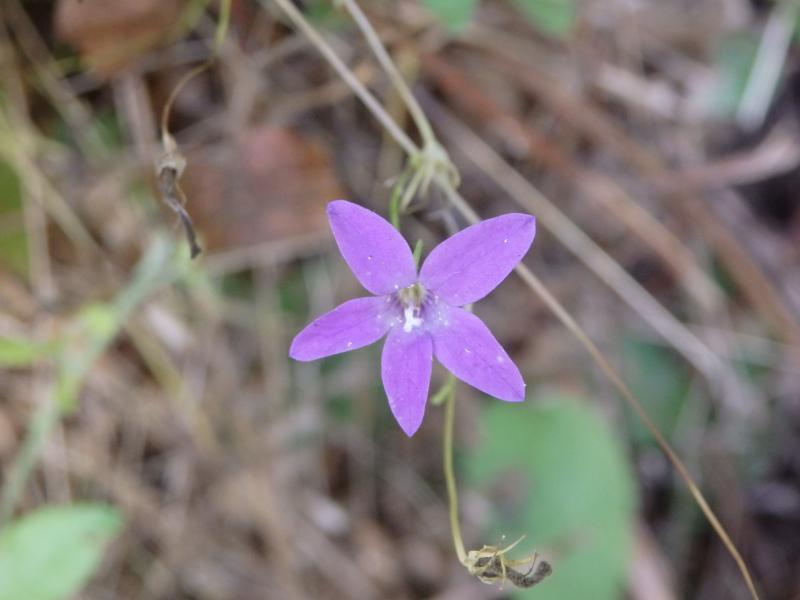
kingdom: Plantae
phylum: Tracheophyta
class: Magnoliopsida
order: Asterales
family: Campanulaceae
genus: Campanula
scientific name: Campanula lusitanica
